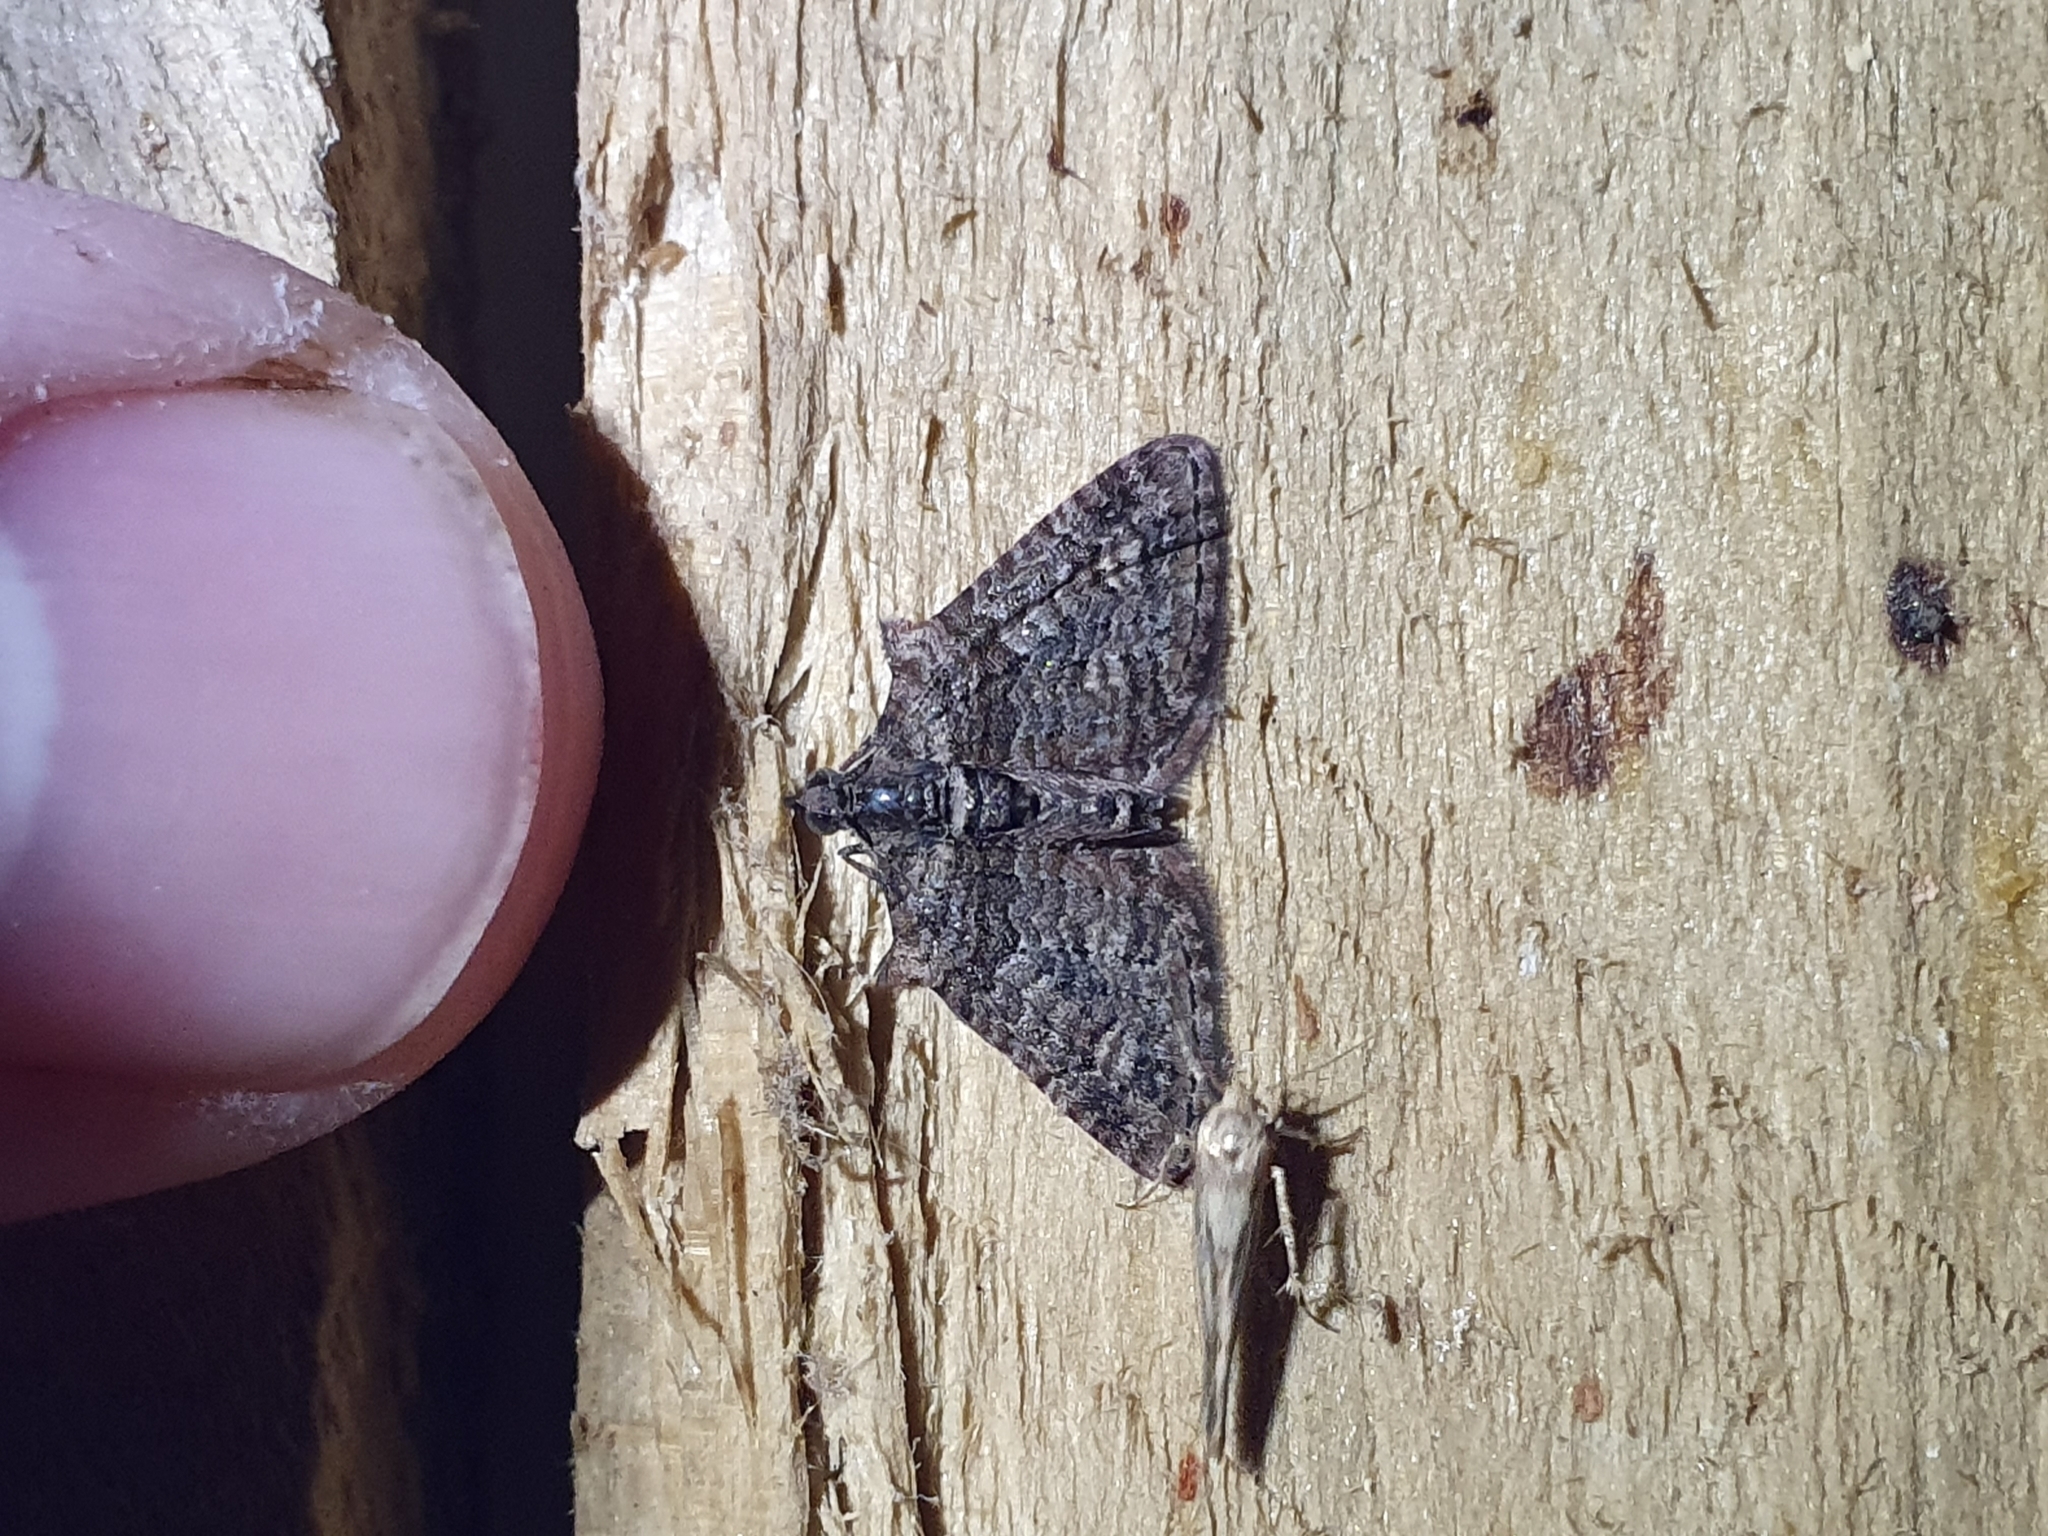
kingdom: Animalia
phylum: Arthropoda
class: Insecta
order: Lepidoptera
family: Geometridae
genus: Phrissogonus
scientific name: Phrissogonus laticostata
